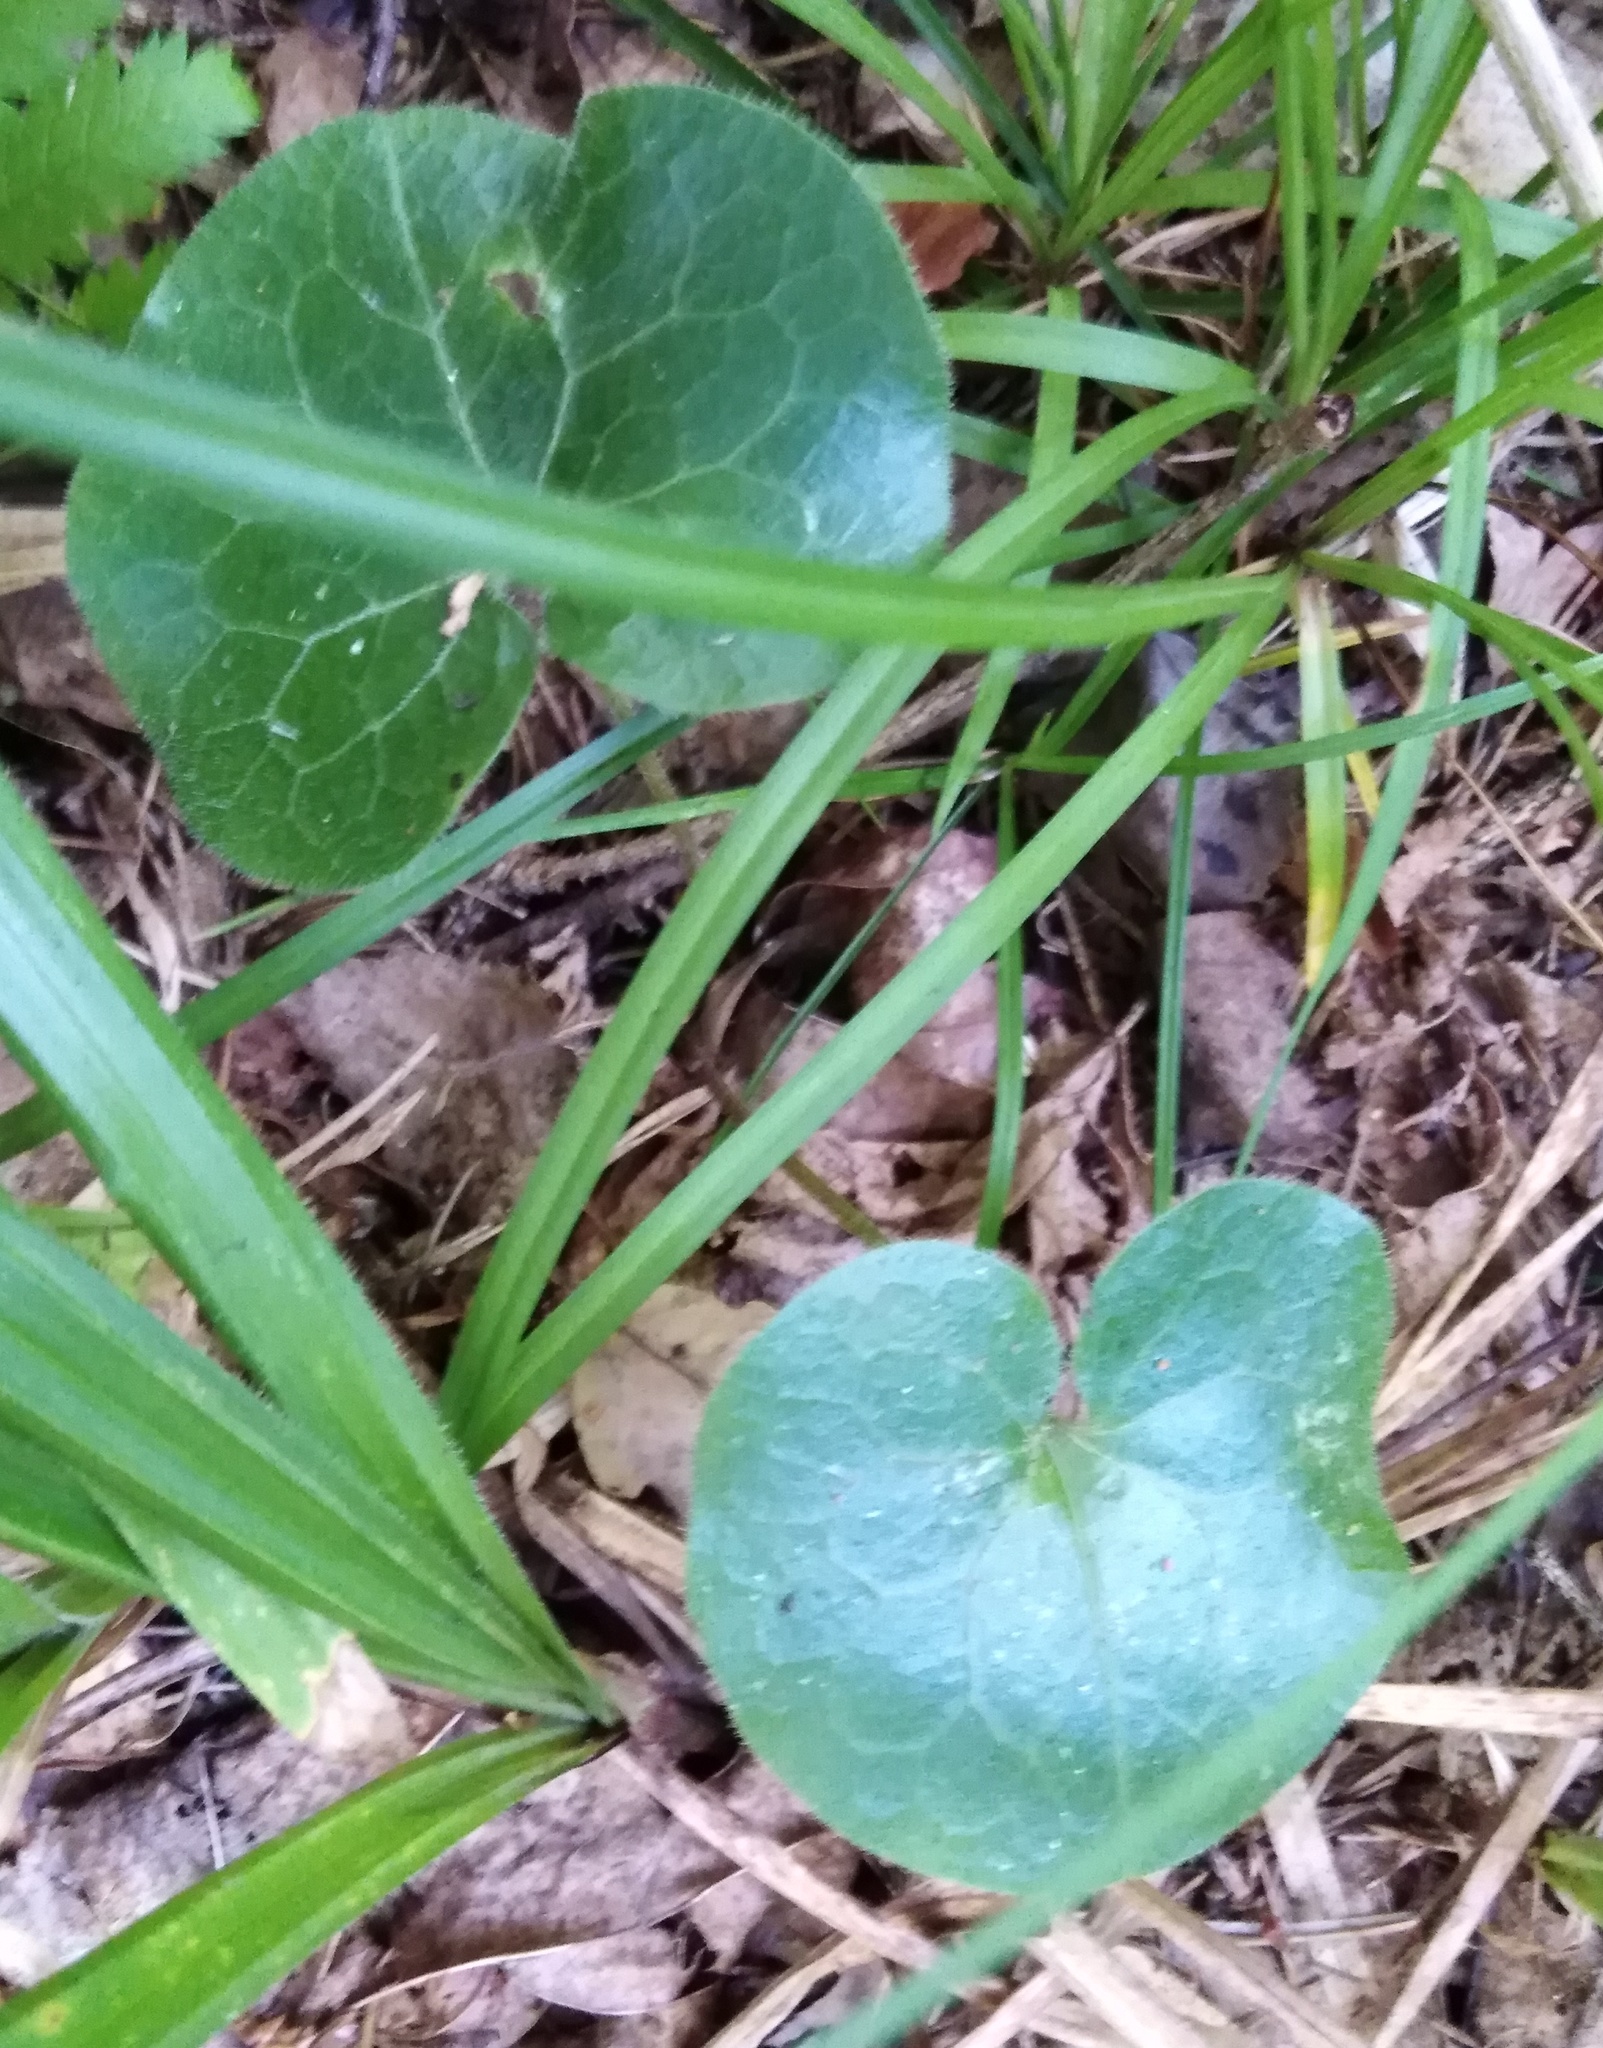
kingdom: Plantae
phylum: Tracheophyta
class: Magnoliopsida
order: Piperales
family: Aristolochiaceae
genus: Asarum
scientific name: Asarum europaeum
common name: Asarabacca
